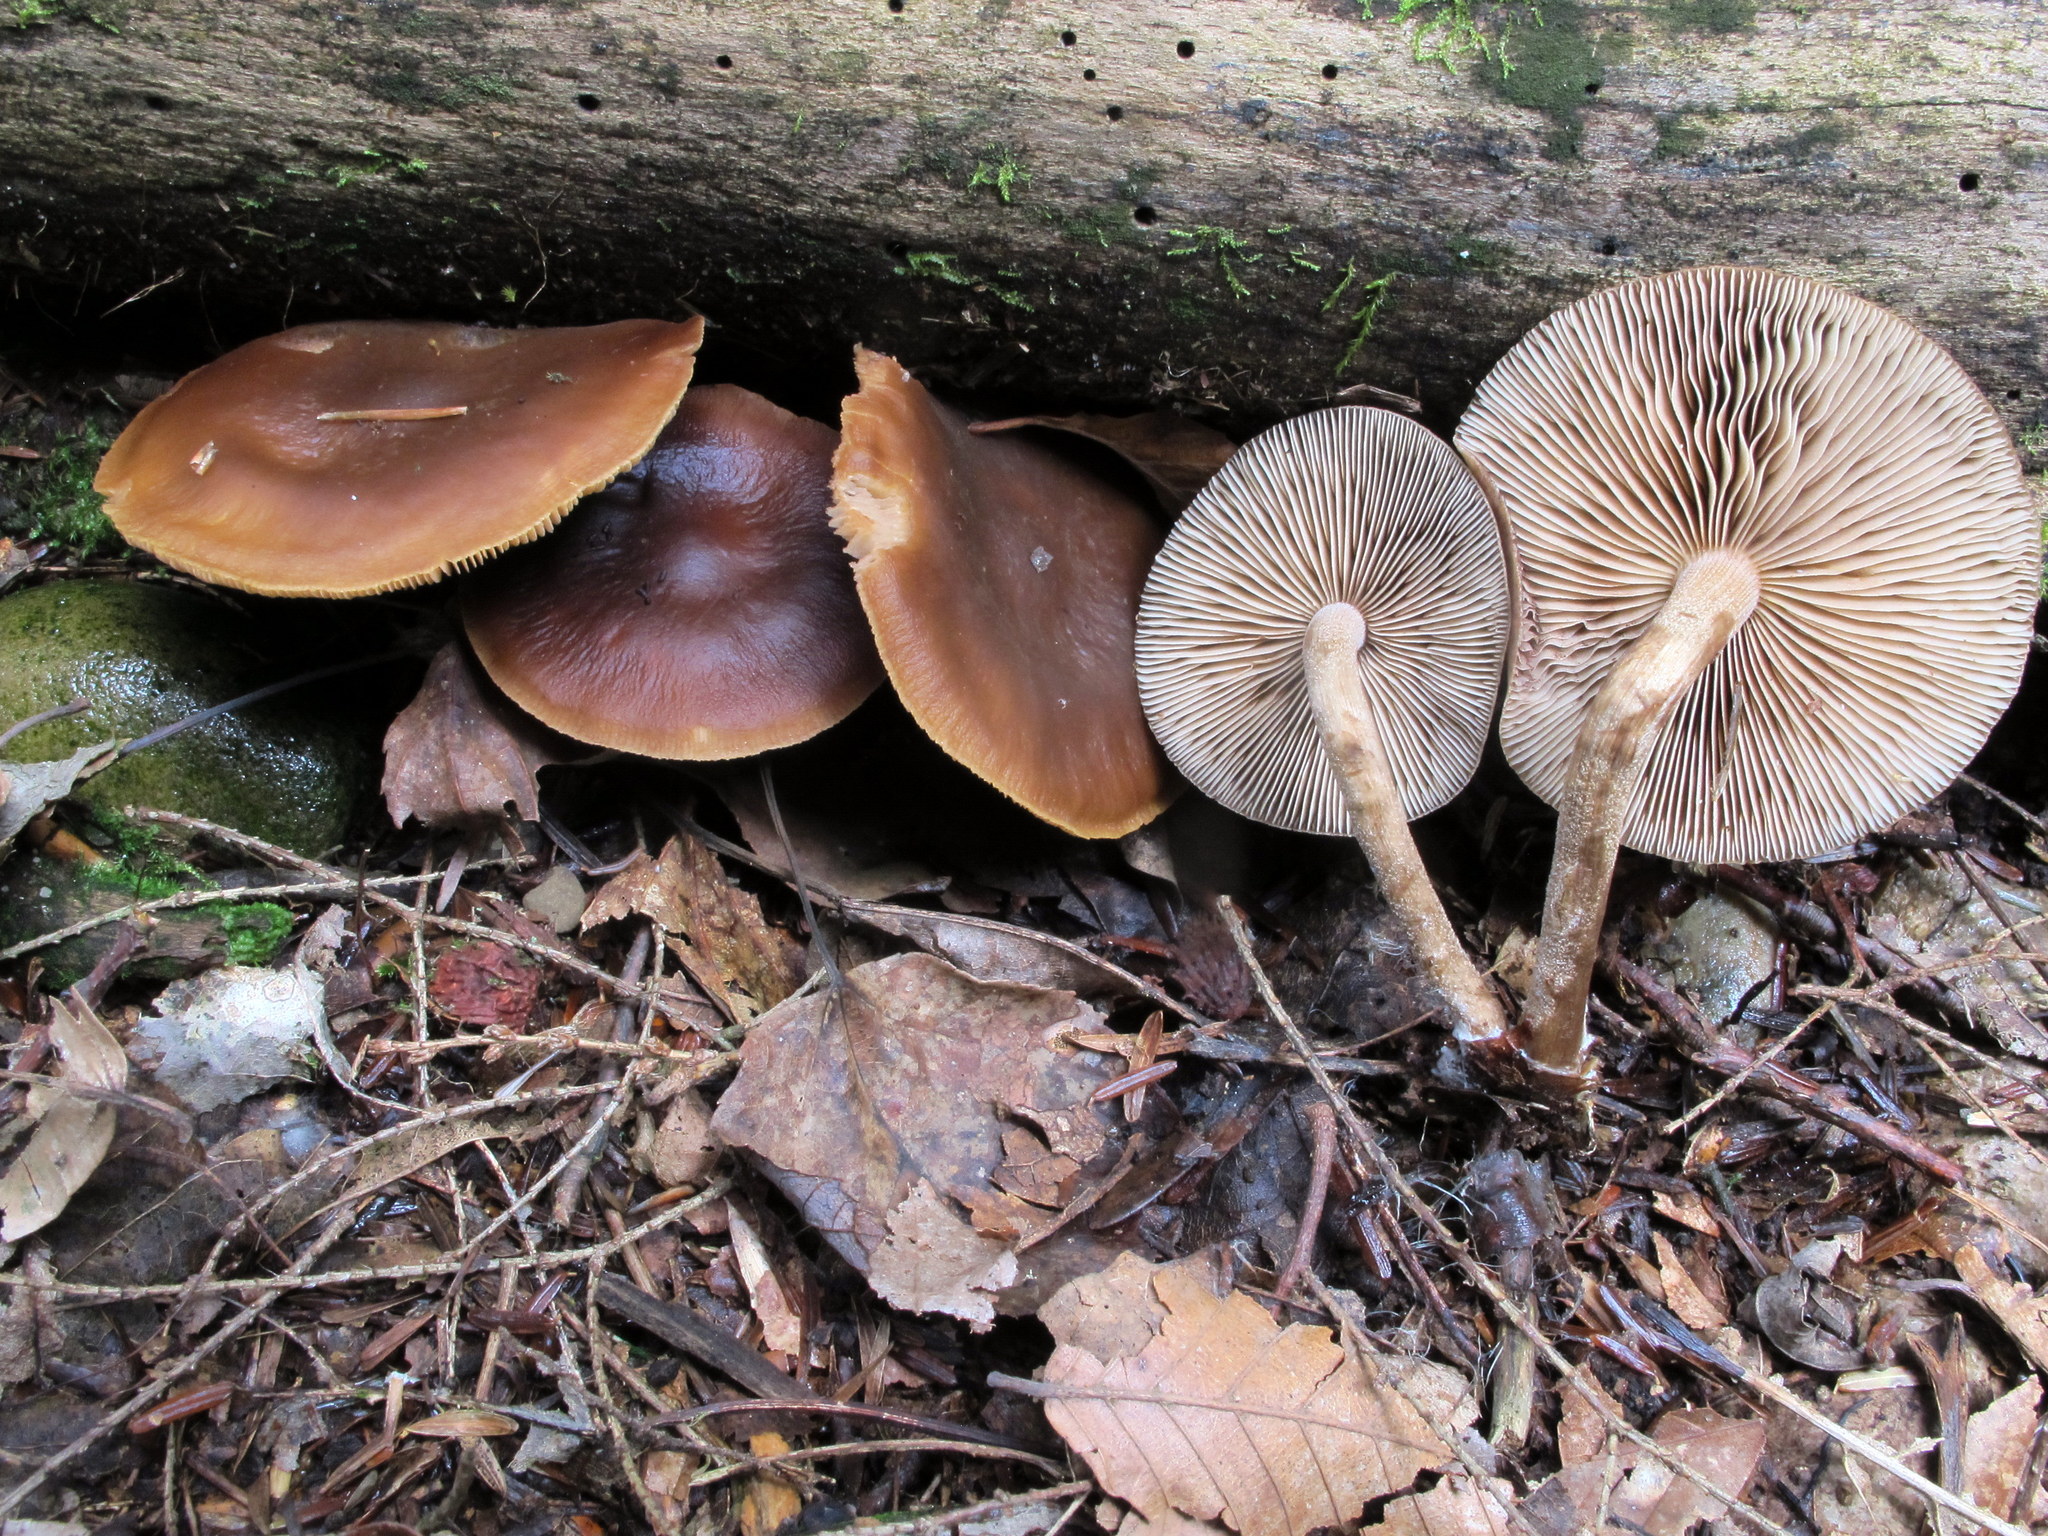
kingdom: Fungi
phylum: Basidiomycota
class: Agaricomycetes
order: Agaricales
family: Strophariaceae
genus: Agrocybe
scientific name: Agrocybe firma
